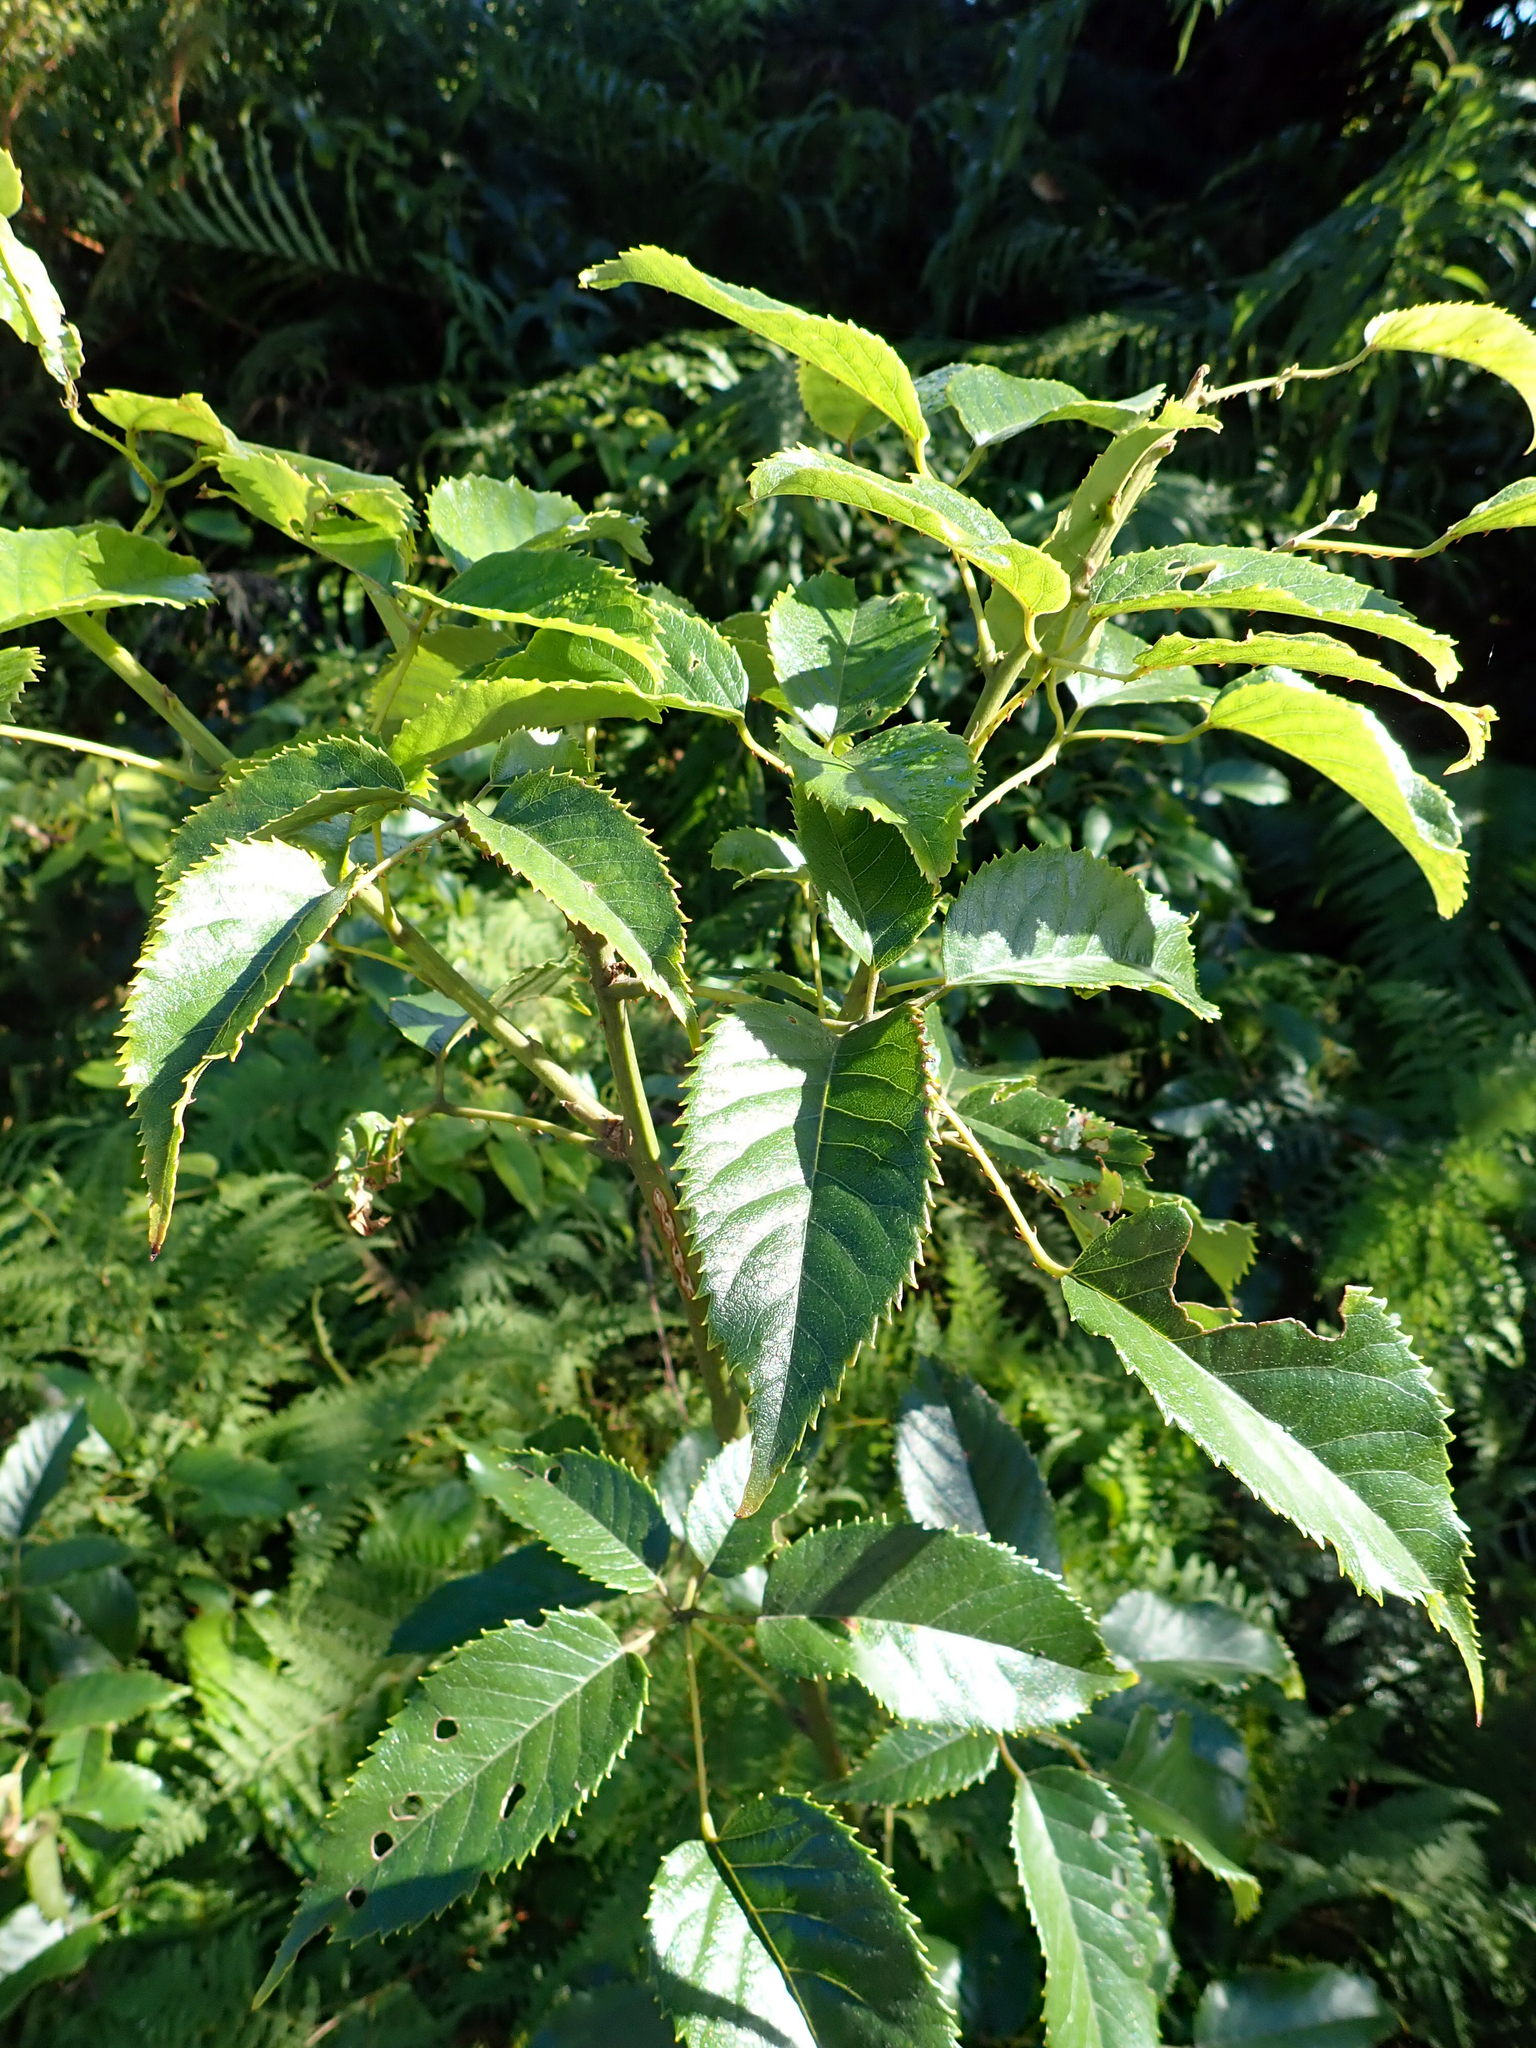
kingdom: Plantae
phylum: Tracheophyta
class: Magnoliopsida
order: Rosales
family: Rosaceae
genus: Rubus
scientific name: Rubus cissoides
